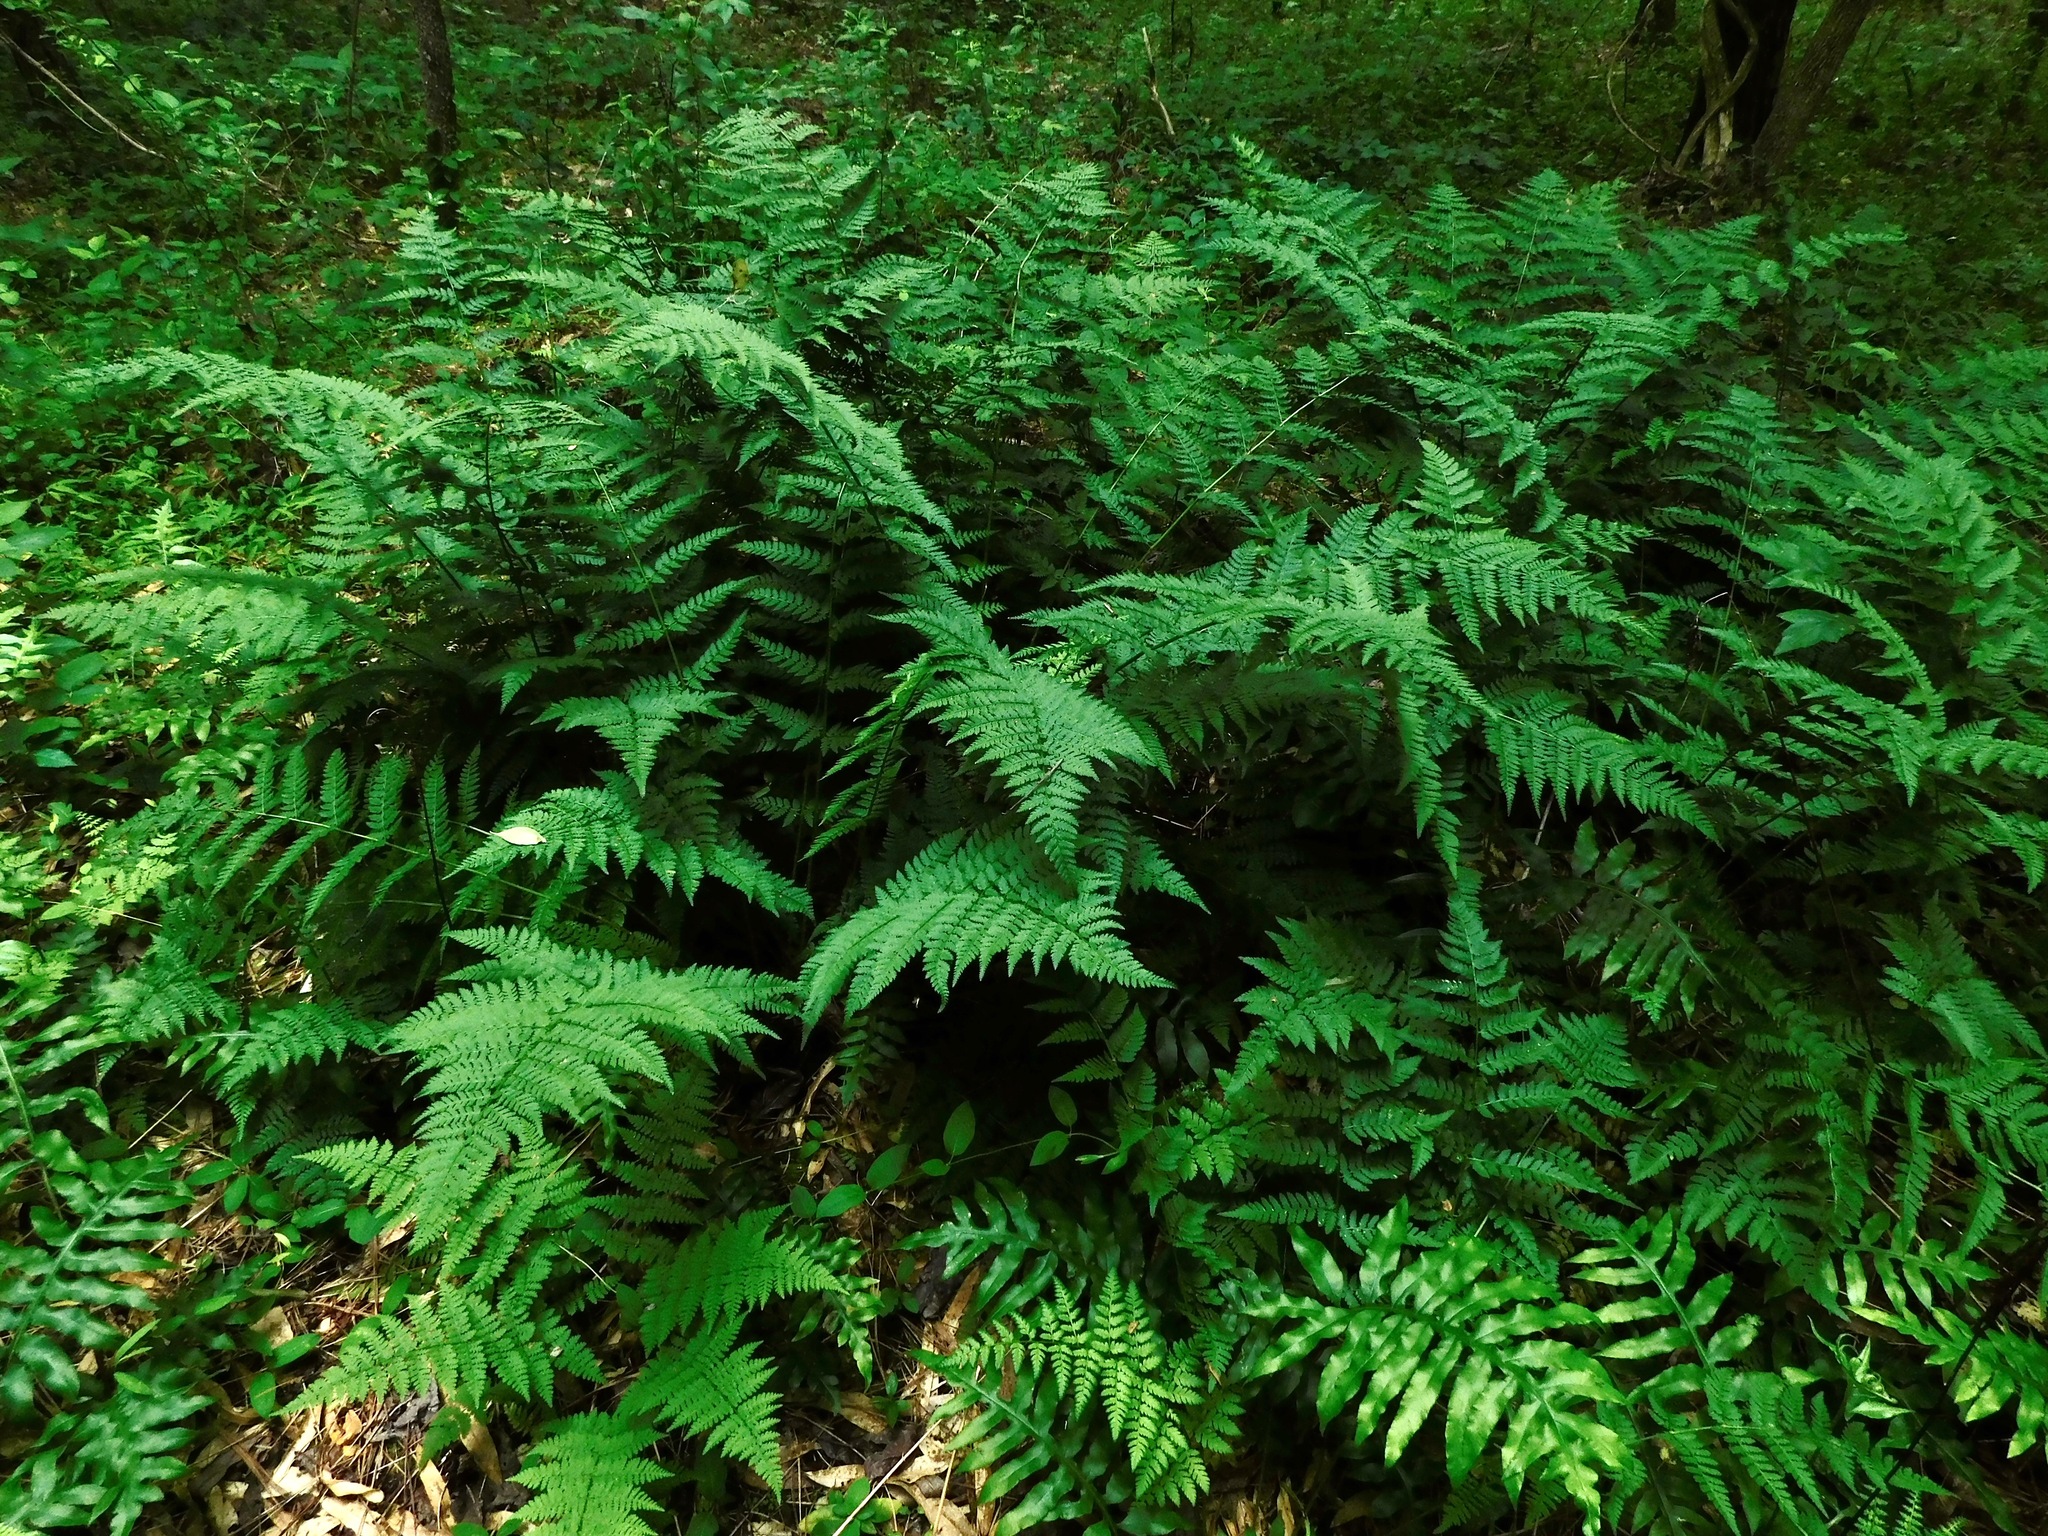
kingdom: Plantae
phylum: Tracheophyta
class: Polypodiopsida
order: Polypodiales
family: Dryopteridaceae
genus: Dryopteris
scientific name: Dryopteris intermedia
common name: Evergreen wood fern
